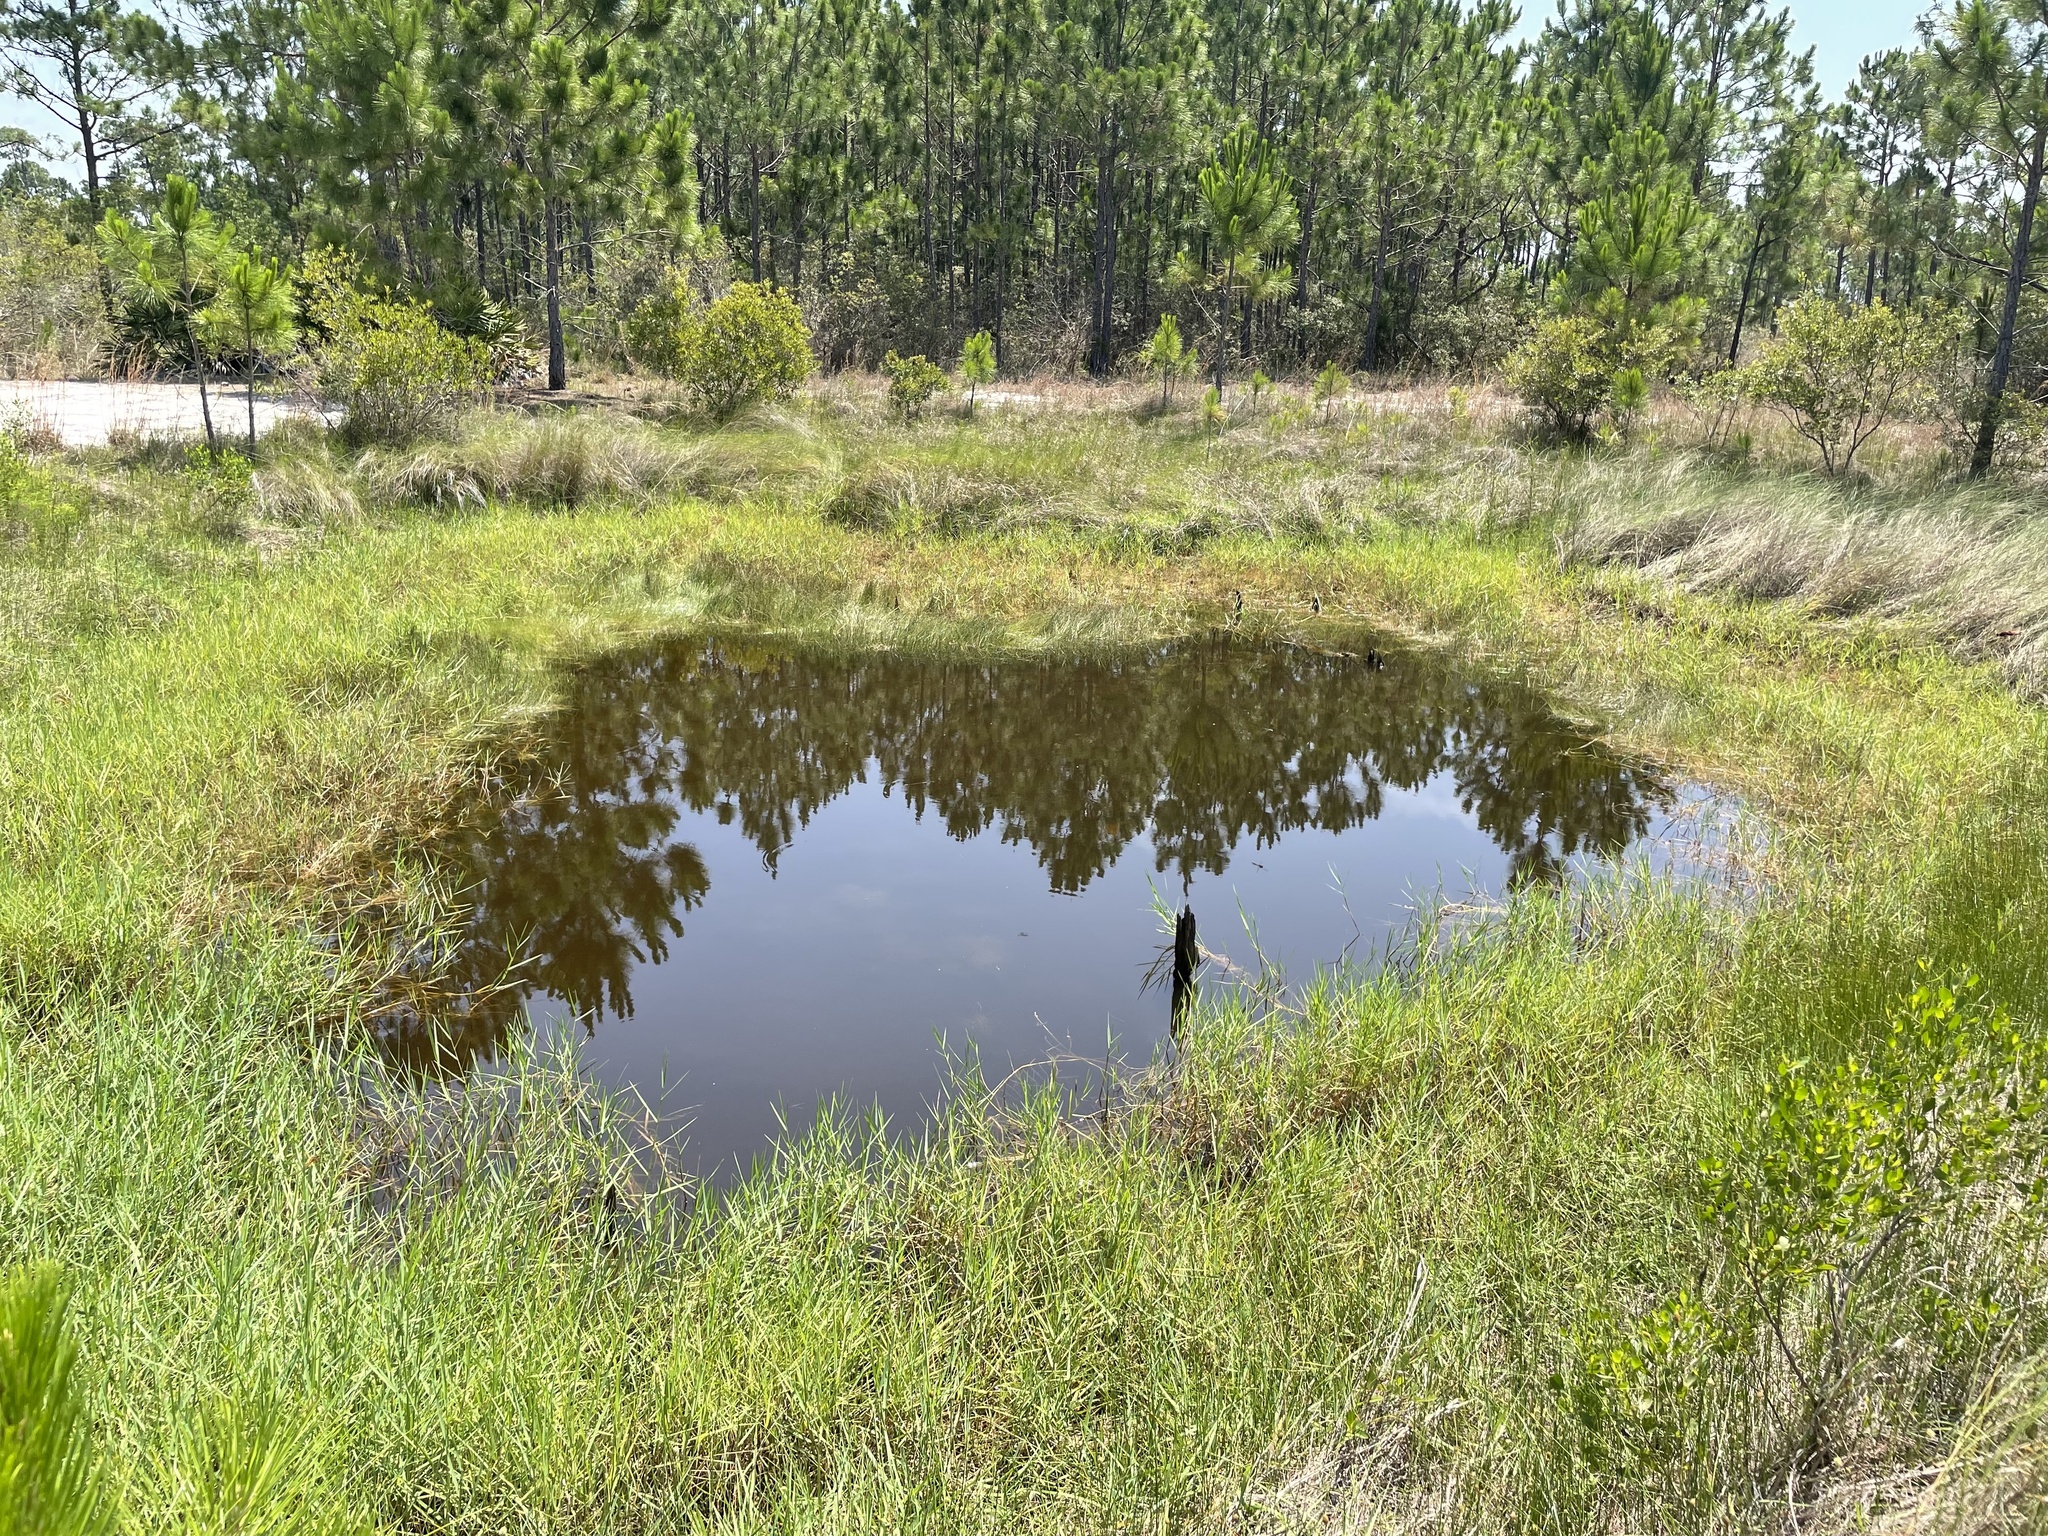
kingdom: Plantae
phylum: Tracheophyta
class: Liliopsida
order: Poales
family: Poaceae
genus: Panicum
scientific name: Panicum repens
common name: Torpedo grass
